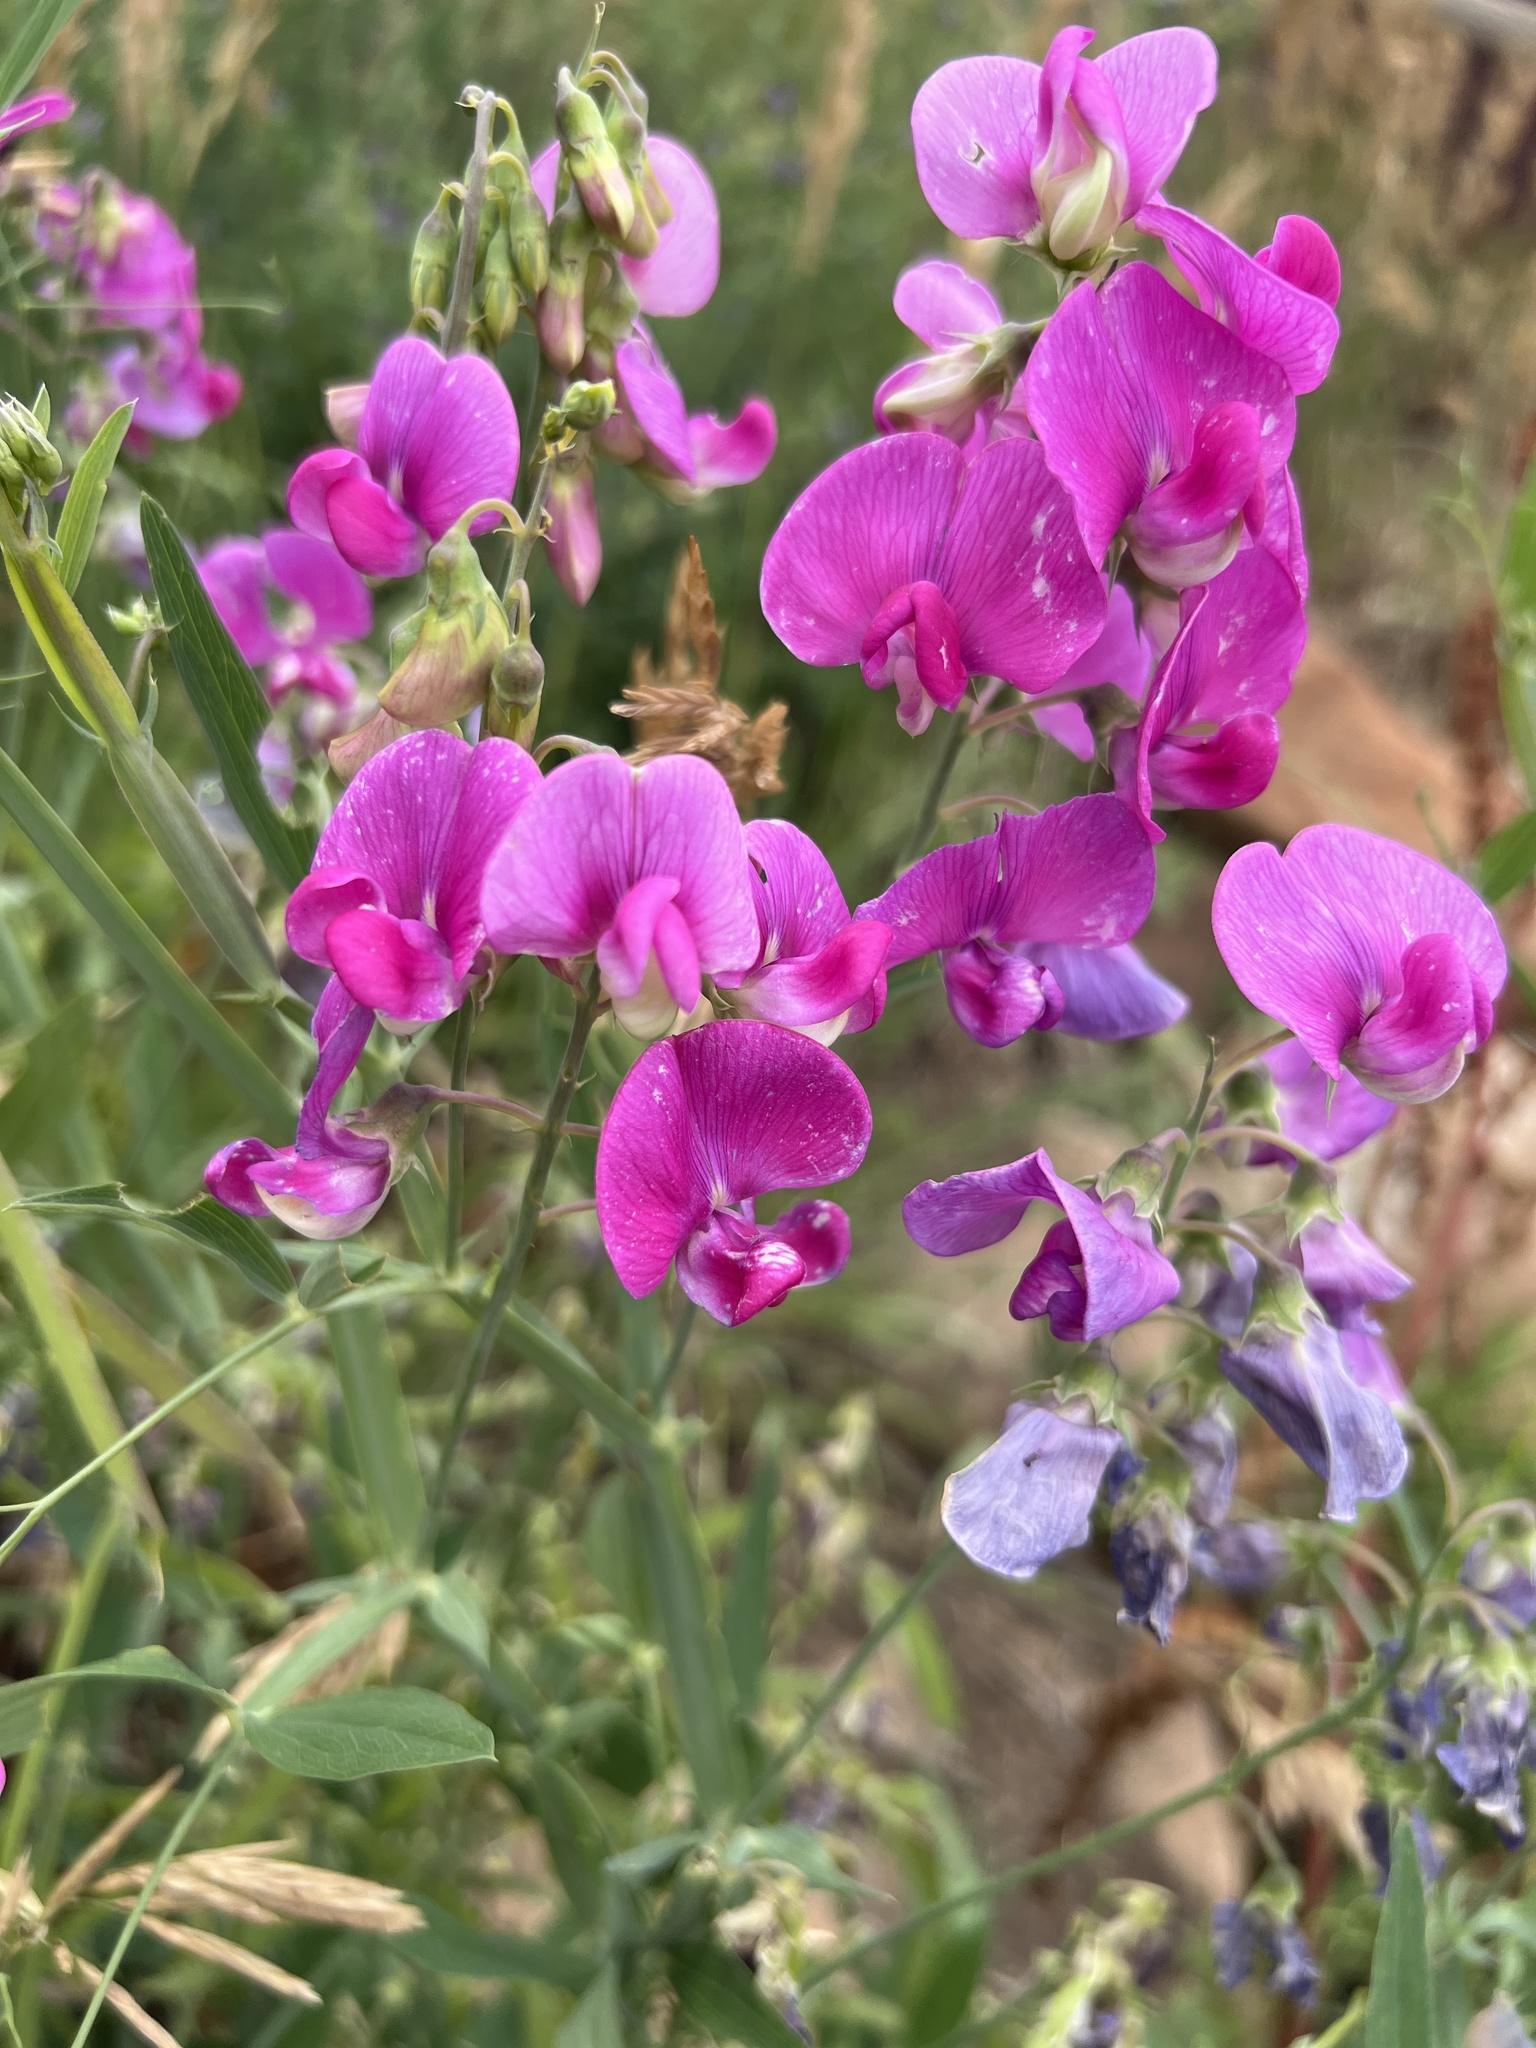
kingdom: Plantae
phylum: Tracheophyta
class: Magnoliopsida
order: Fabales
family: Fabaceae
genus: Lathyrus
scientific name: Lathyrus latifolius
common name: Perennial pea
